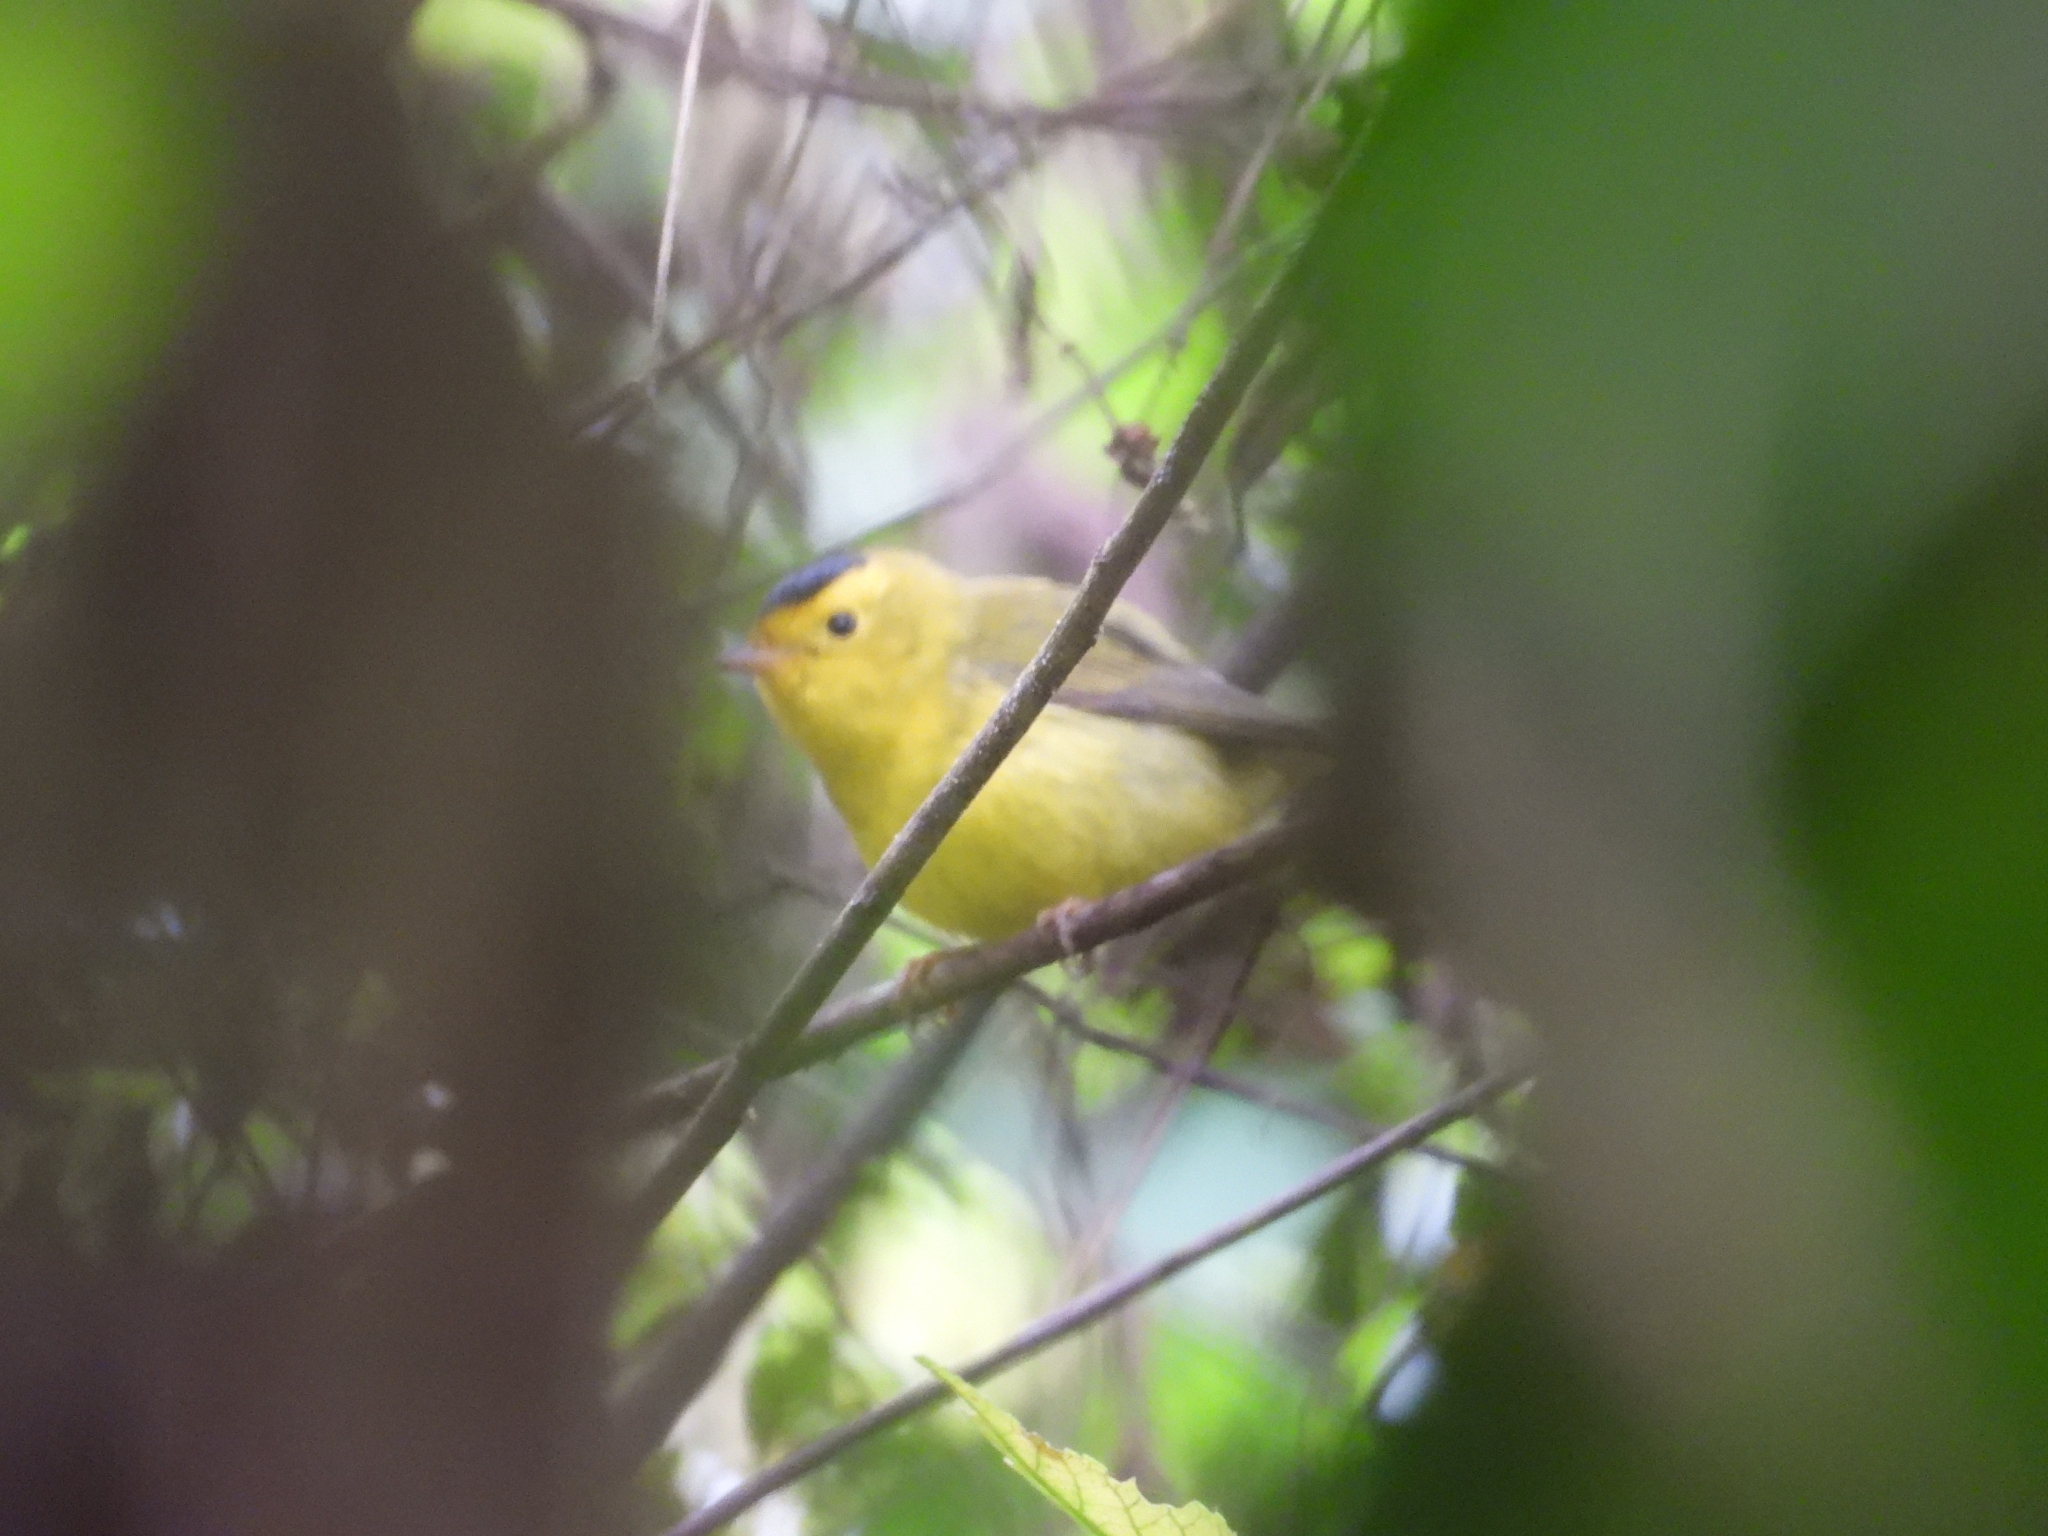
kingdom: Animalia
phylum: Chordata
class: Aves
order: Passeriformes
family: Parulidae
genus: Cardellina
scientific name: Cardellina pusilla
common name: Wilson's warbler
